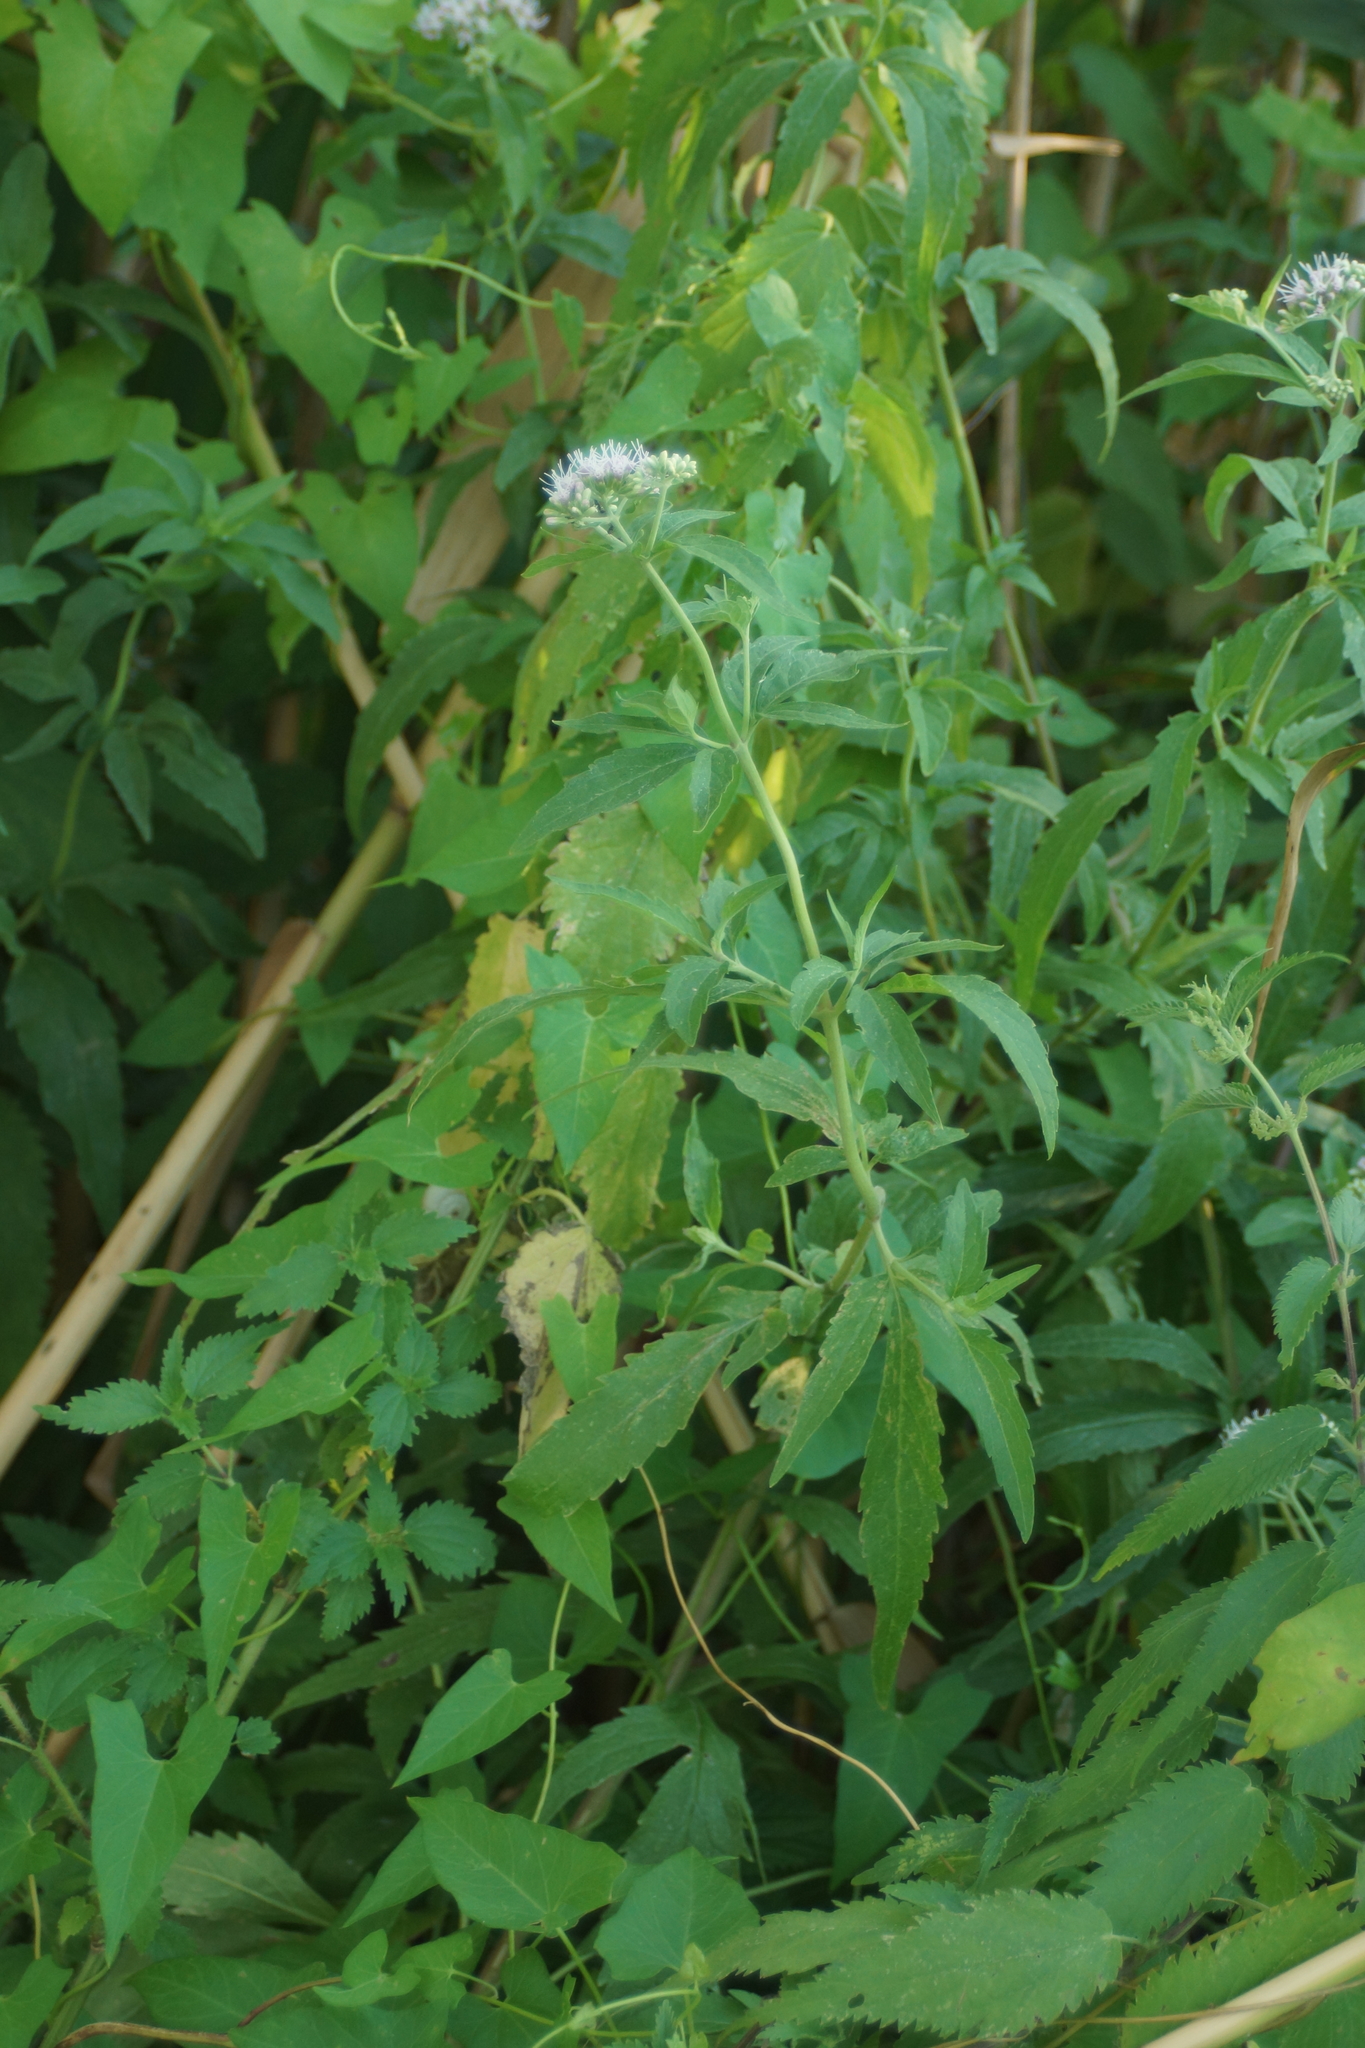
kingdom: Plantae
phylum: Tracheophyta
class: Magnoliopsida
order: Asterales
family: Asteraceae
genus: Eupatorium
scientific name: Eupatorium cannabinum
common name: Hemp-agrimony
